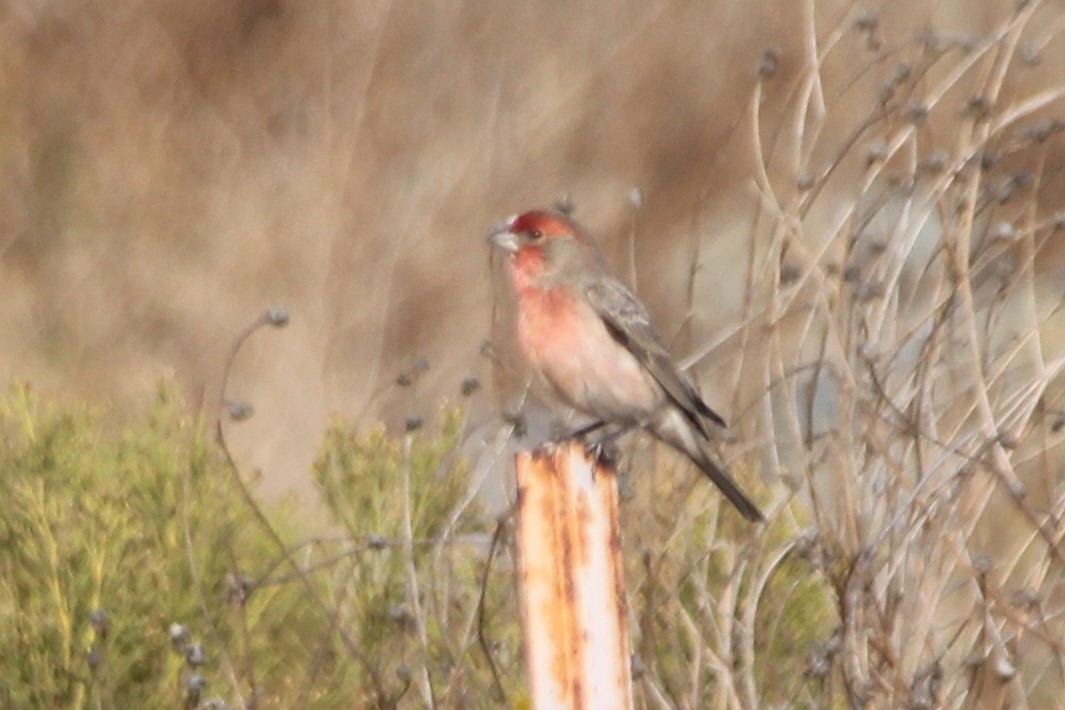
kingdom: Animalia
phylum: Chordata
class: Aves
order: Passeriformes
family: Fringillidae
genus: Haemorhous
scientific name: Haemorhous mexicanus
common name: House finch
